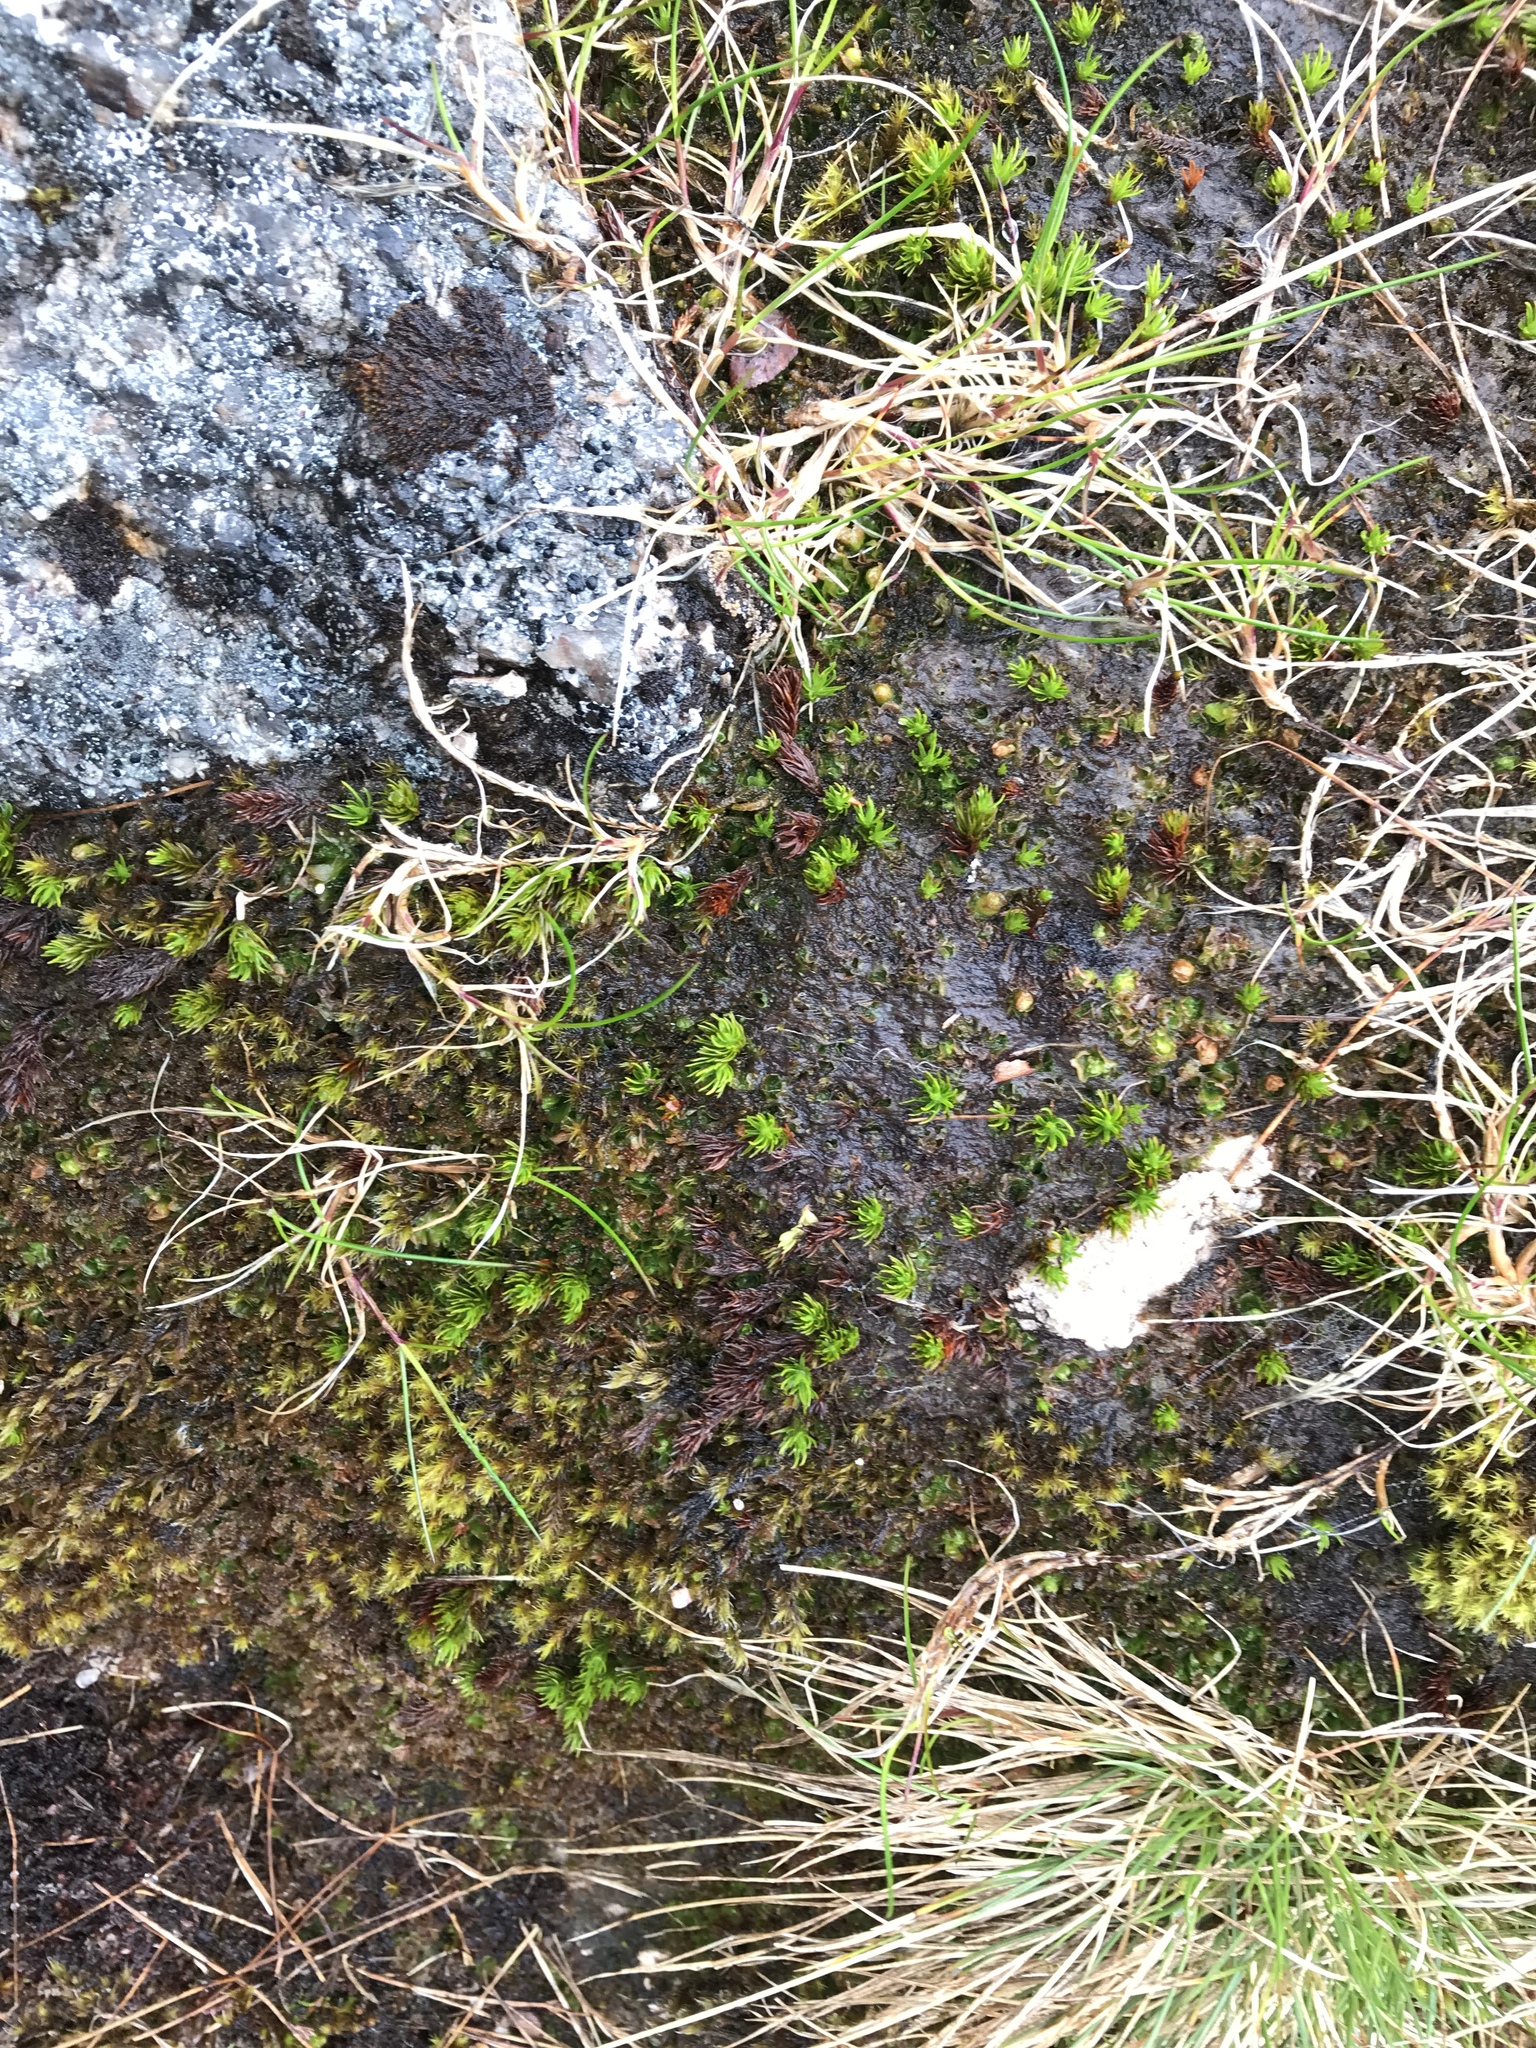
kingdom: Plantae
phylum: Bryophyta
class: Polytrichopsida
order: Polytrichales
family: Polytrichaceae
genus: Polytrichastrum
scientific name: Polytrichastrum sexangulare
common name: Northern haircap
